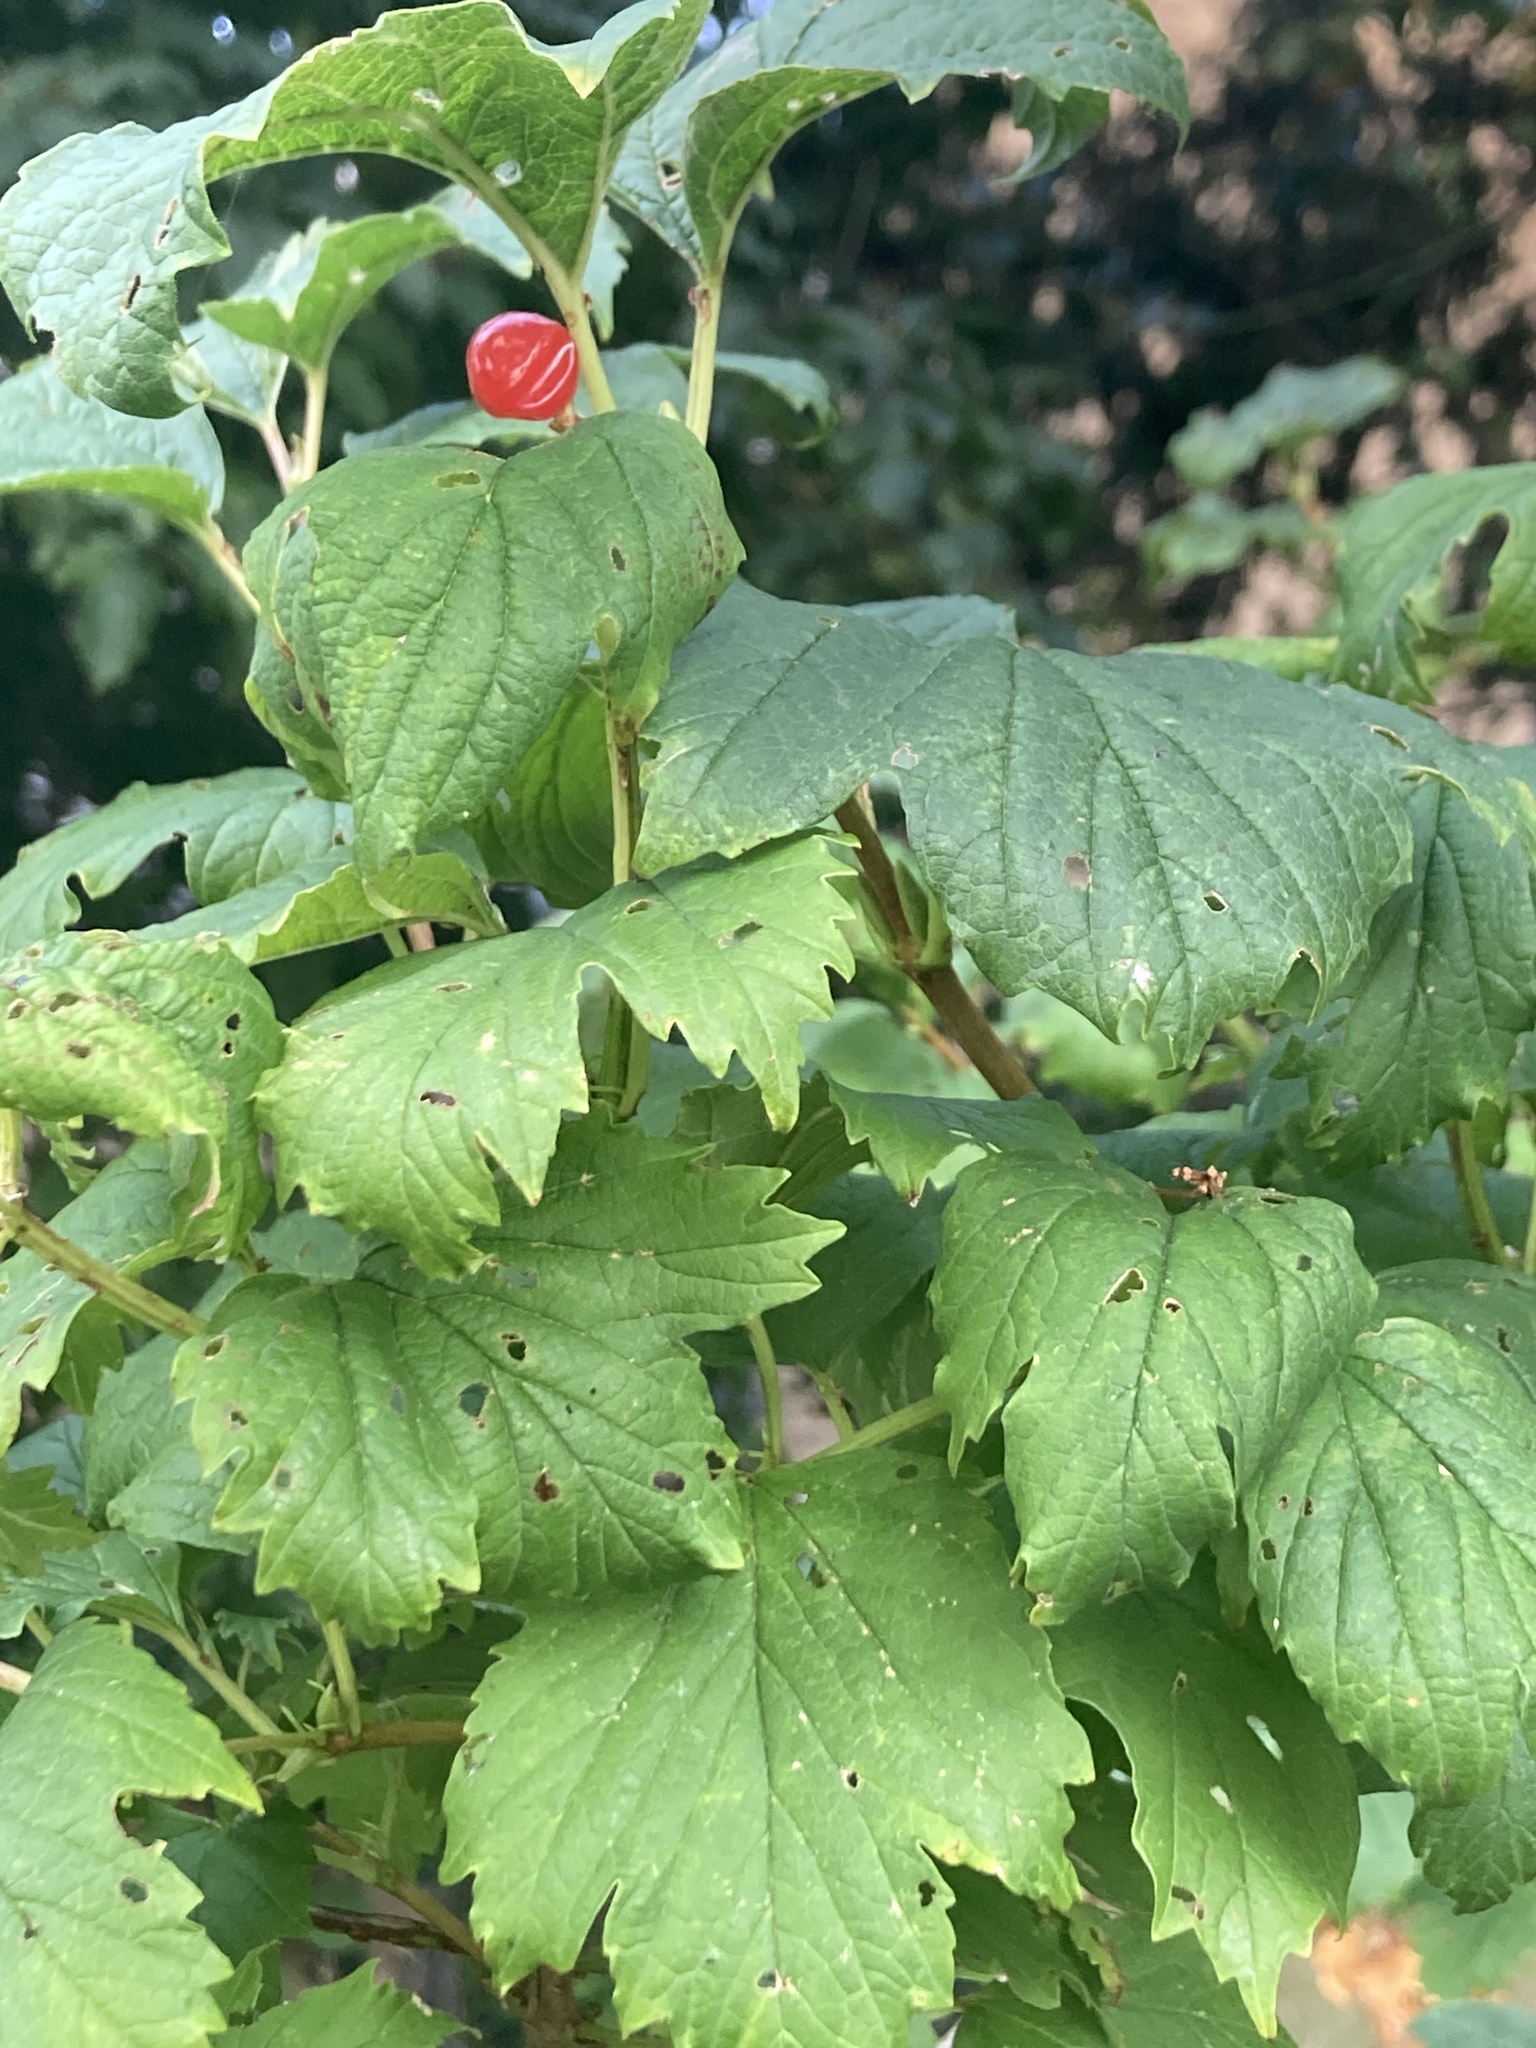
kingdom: Plantae
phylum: Tracheophyta
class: Magnoliopsida
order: Dipsacales
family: Viburnaceae
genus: Viburnum
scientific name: Viburnum opulus
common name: Guelder-rose
